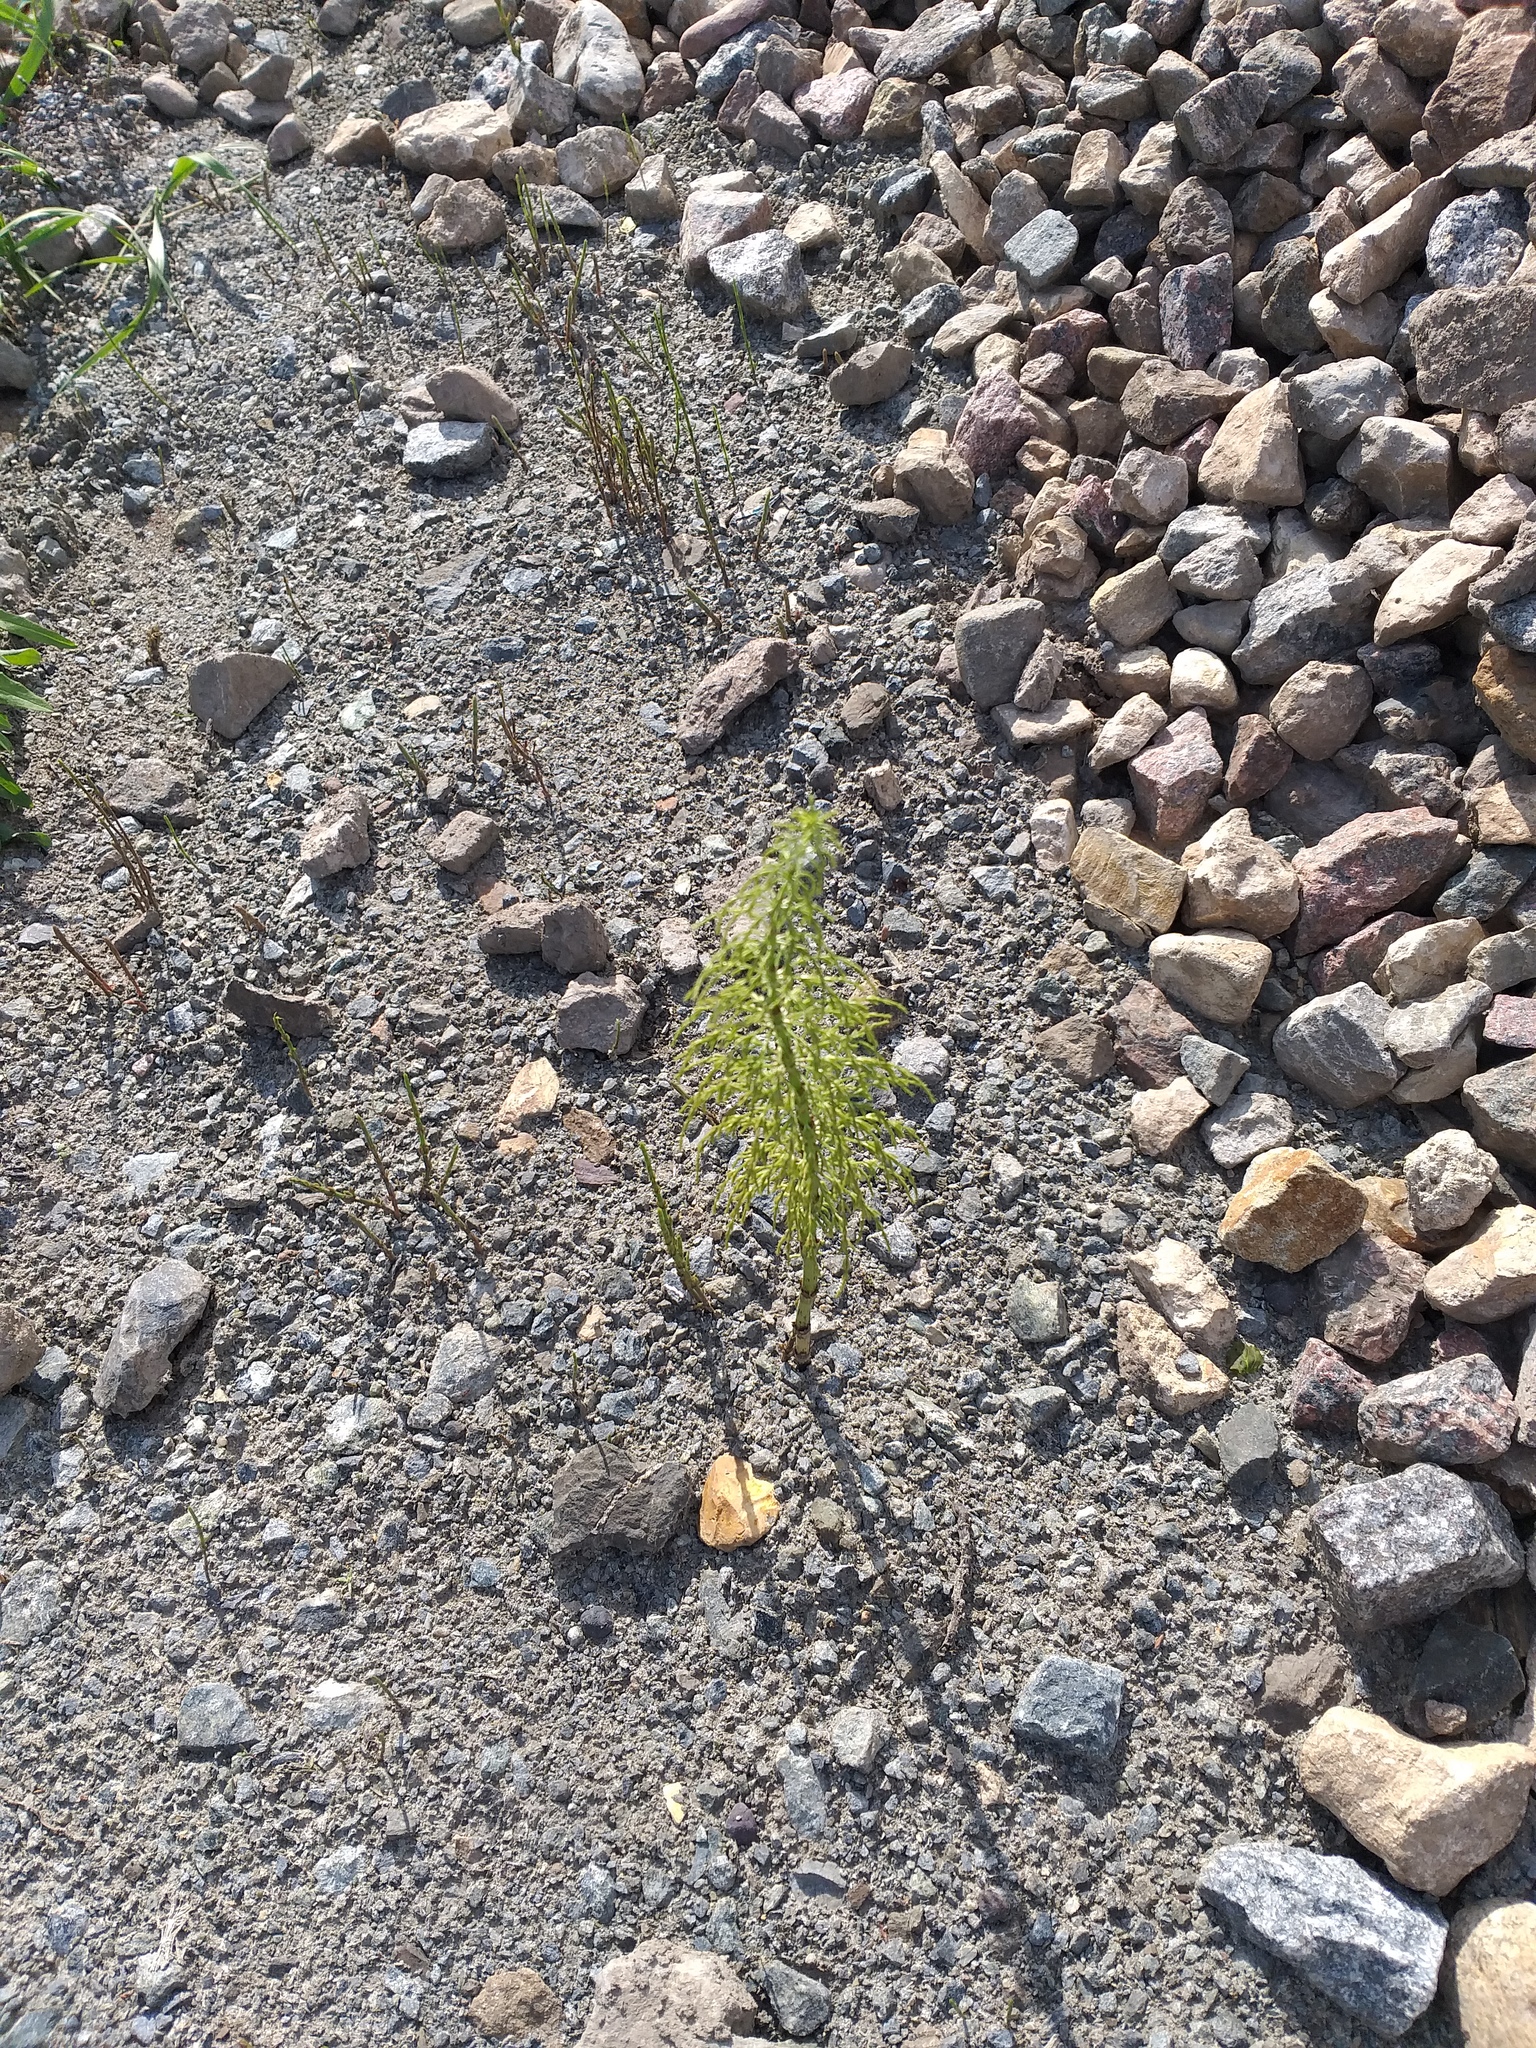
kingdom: Plantae
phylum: Tracheophyta
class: Polypodiopsida
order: Equisetales
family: Equisetaceae
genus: Equisetum
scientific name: Equisetum sylvaticum
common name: Wood horsetail
